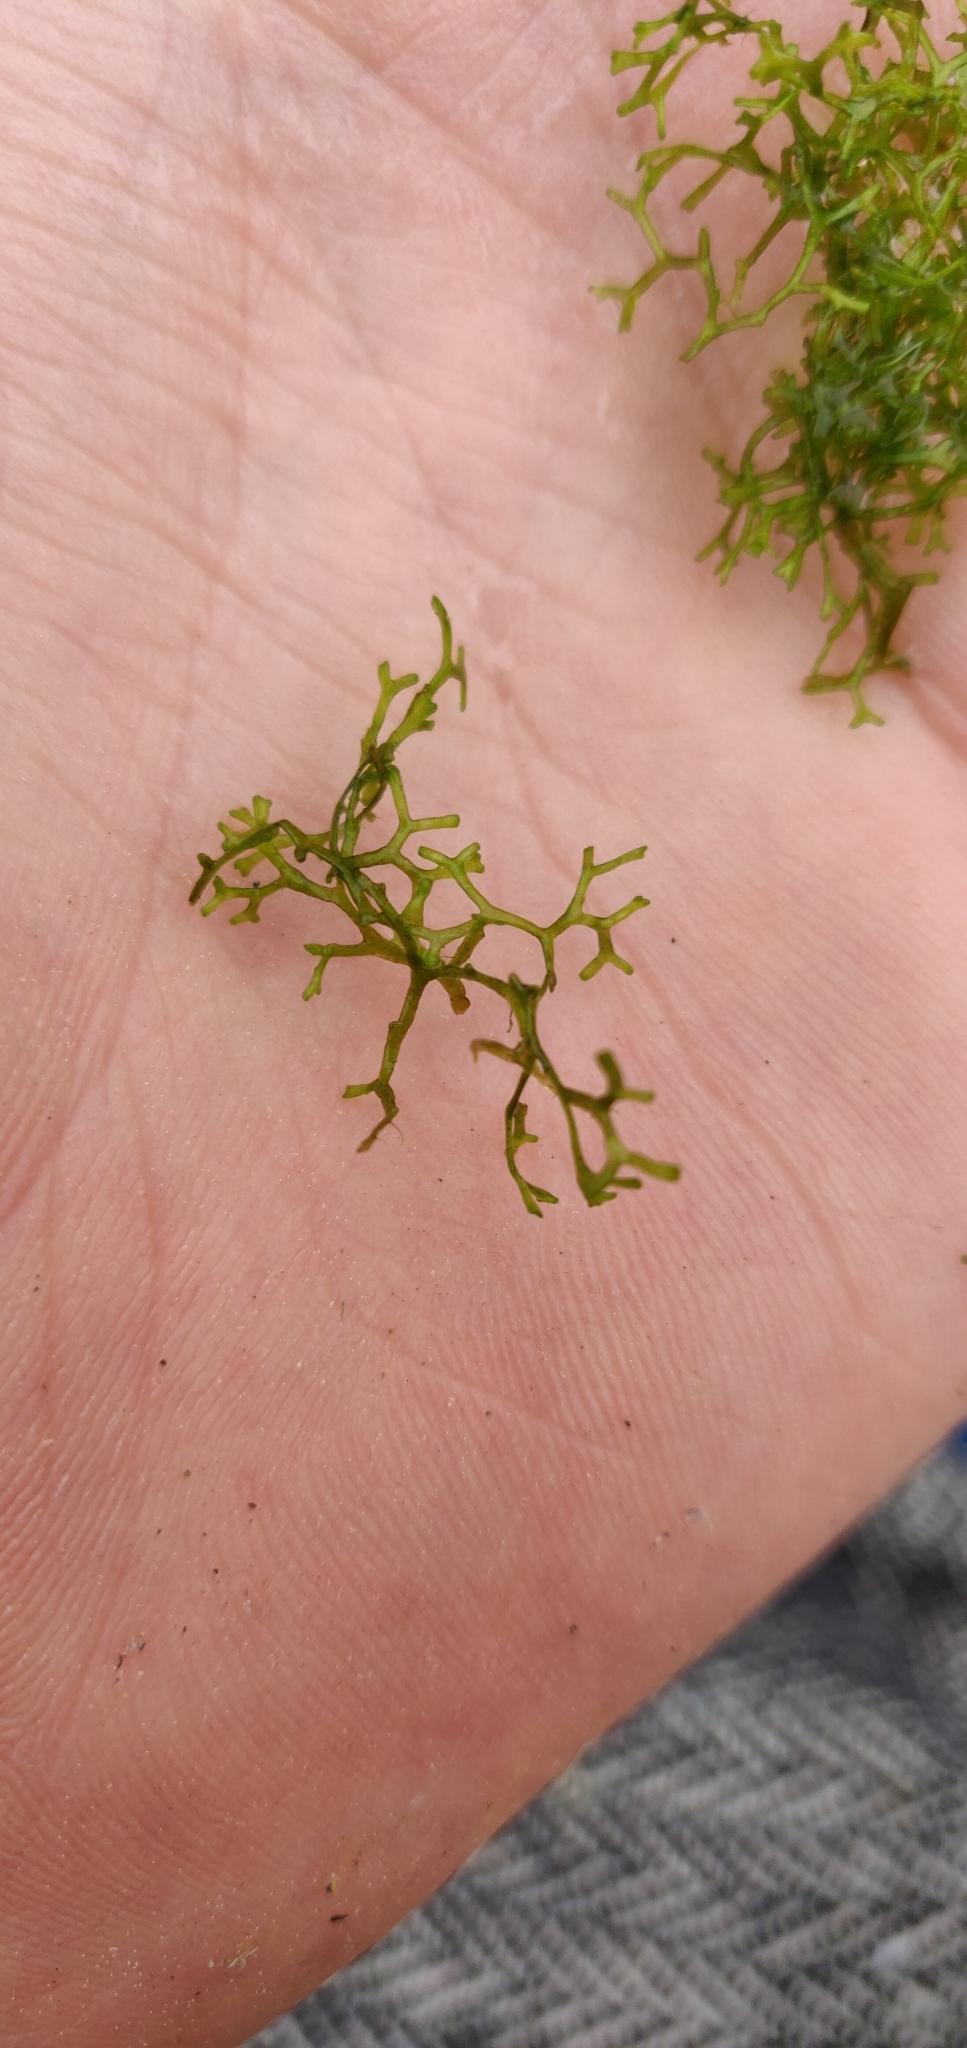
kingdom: Plantae
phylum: Marchantiophyta
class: Marchantiopsida
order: Marchantiales
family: Ricciaceae
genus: Riccia
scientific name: Riccia fluitans
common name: Floating crystalwort
